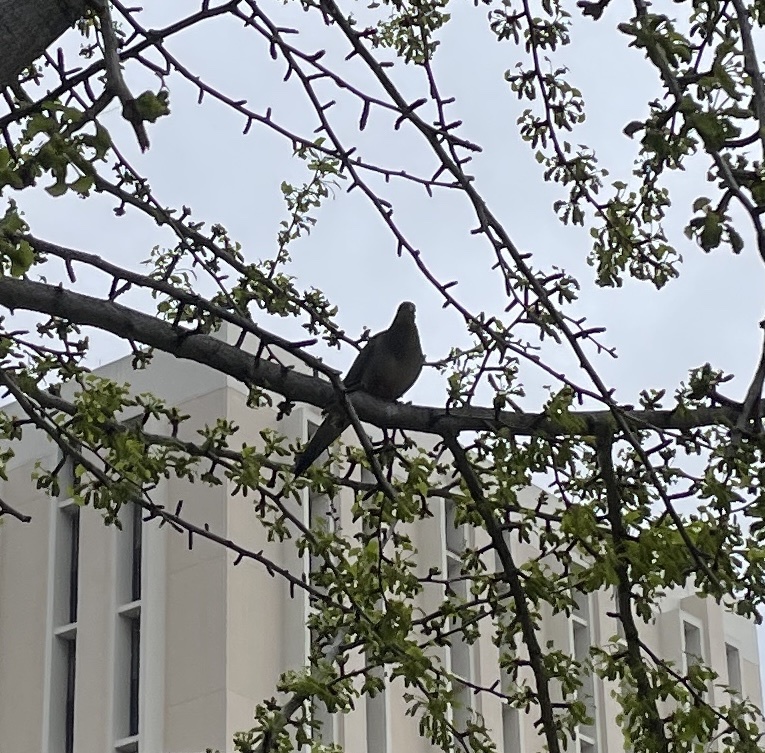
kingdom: Animalia
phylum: Chordata
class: Aves
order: Columbiformes
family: Columbidae
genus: Zenaida
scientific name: Zenaida macroura
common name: Mourning dove
